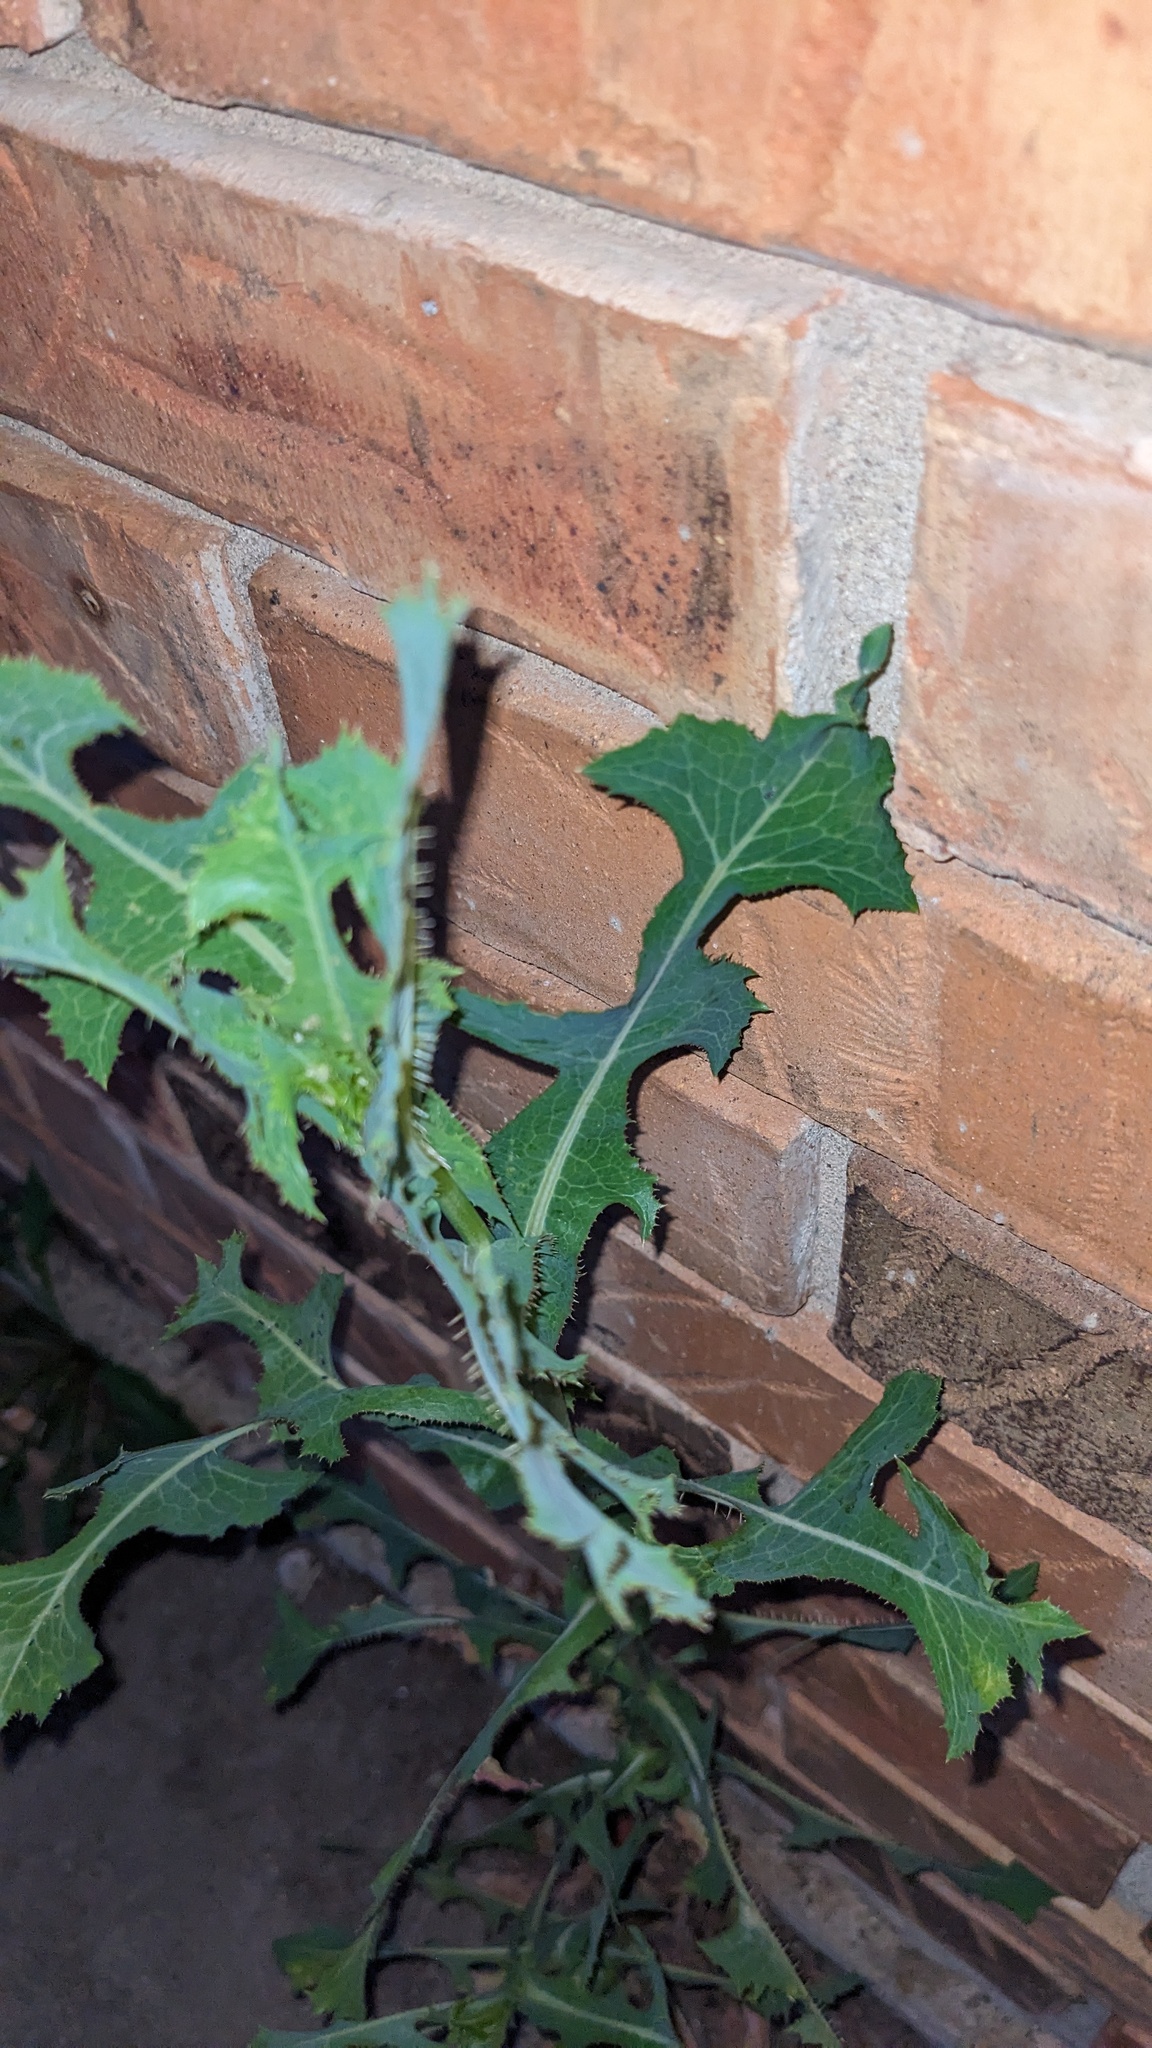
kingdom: Plantae
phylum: Tracheophyta
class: Magnoliopsida
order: Asterales
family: Asteraceae
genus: Lactuca
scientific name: Lactuca serriola
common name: Prickly lettuce
